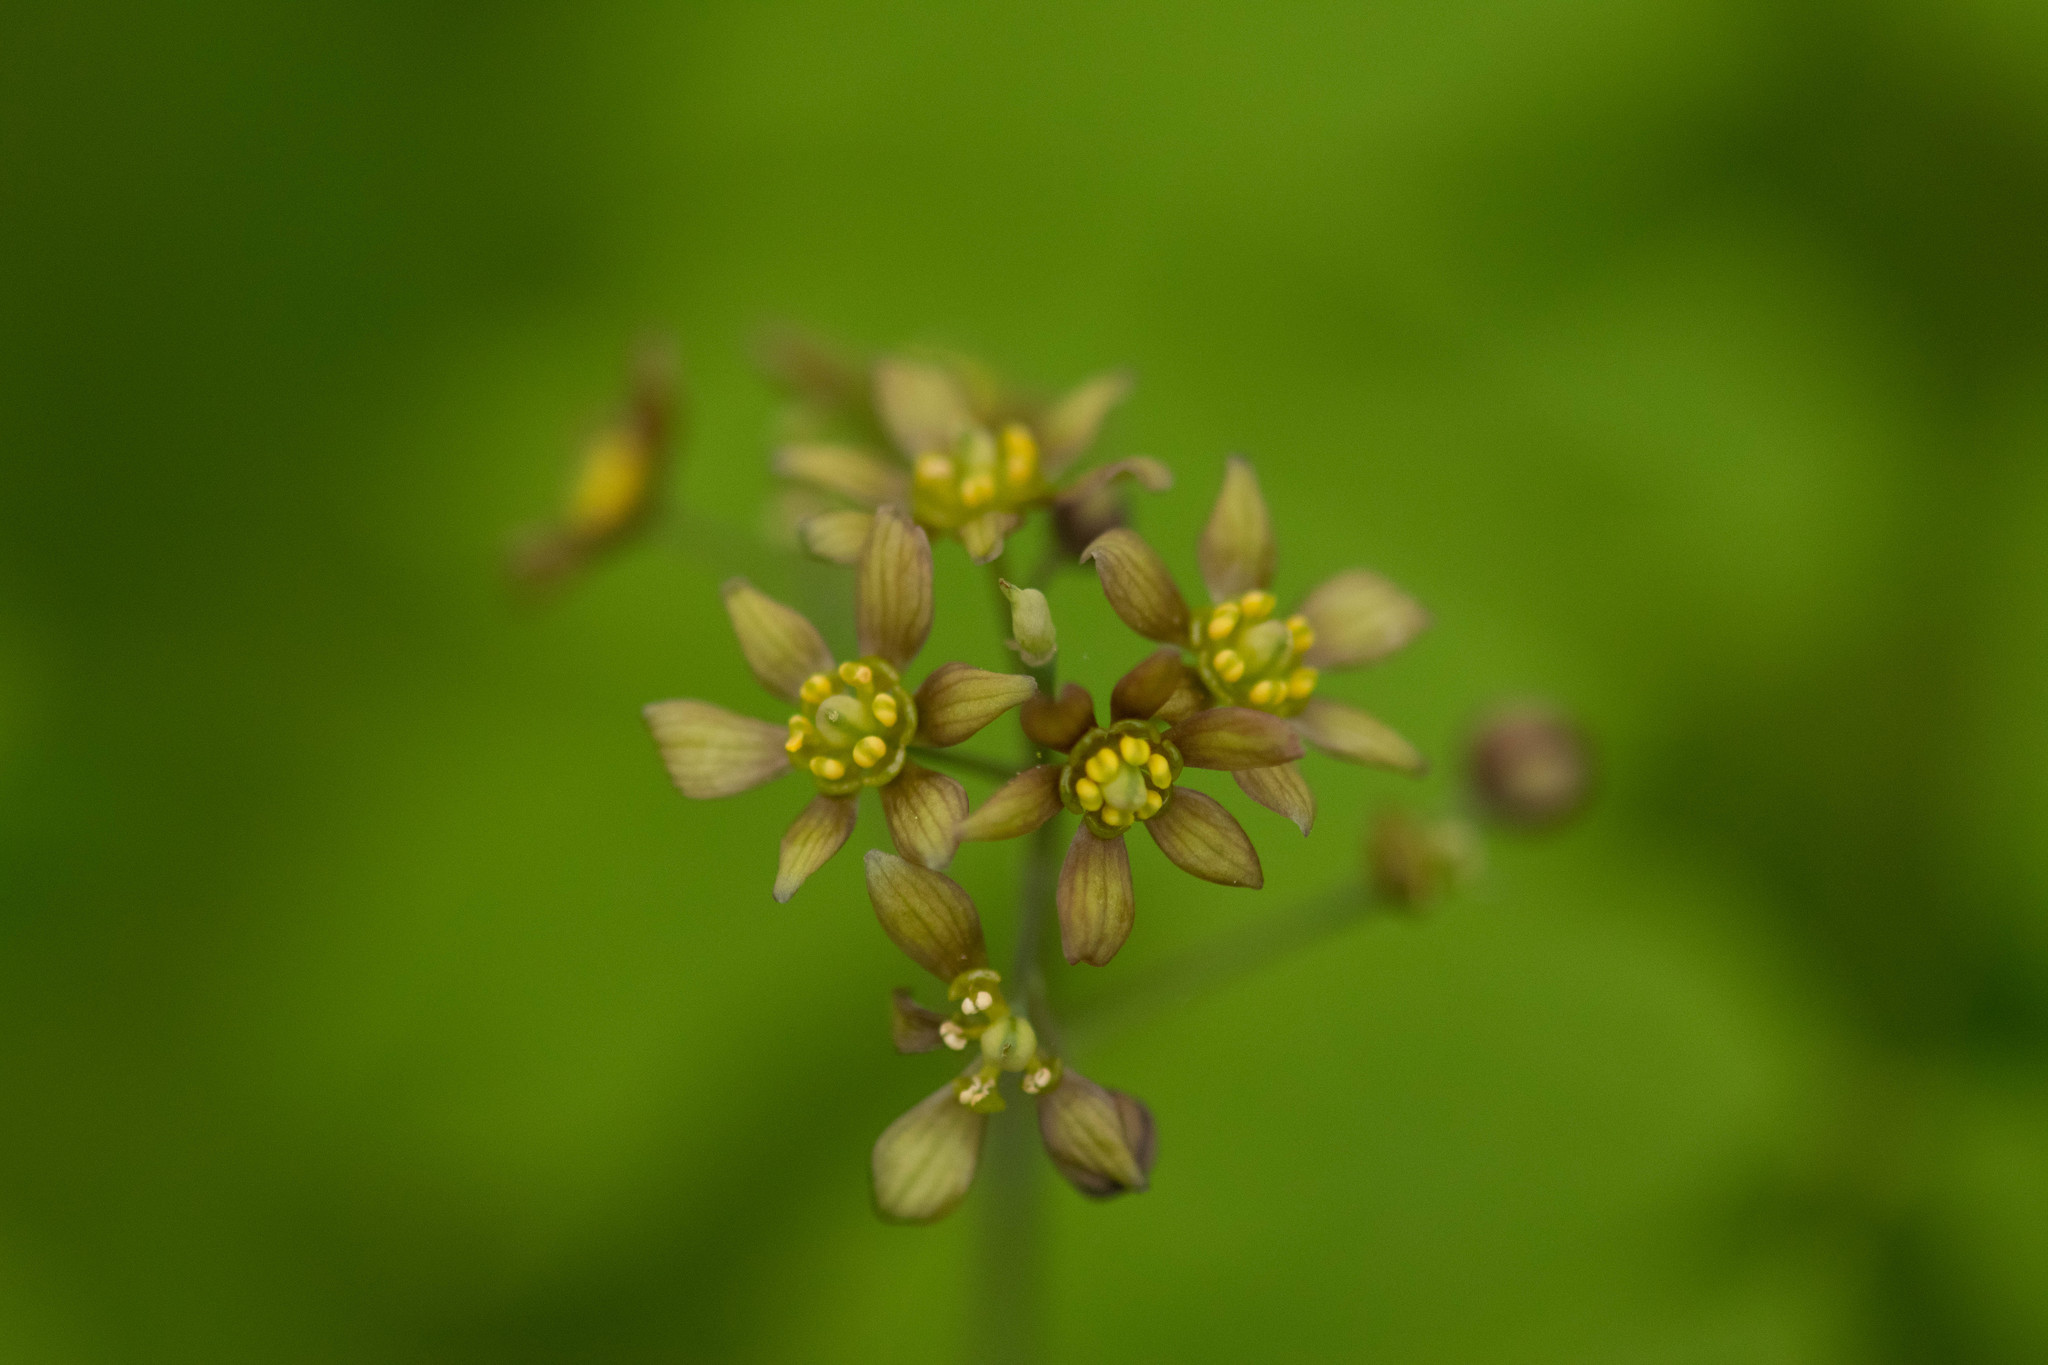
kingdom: Plantae
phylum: Tracheophyta
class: Magnoliopsida
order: Ranunculales
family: Berberidaceae
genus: Caulophyllum
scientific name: Caulophyllum thalictroides
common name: Blue cohosh
